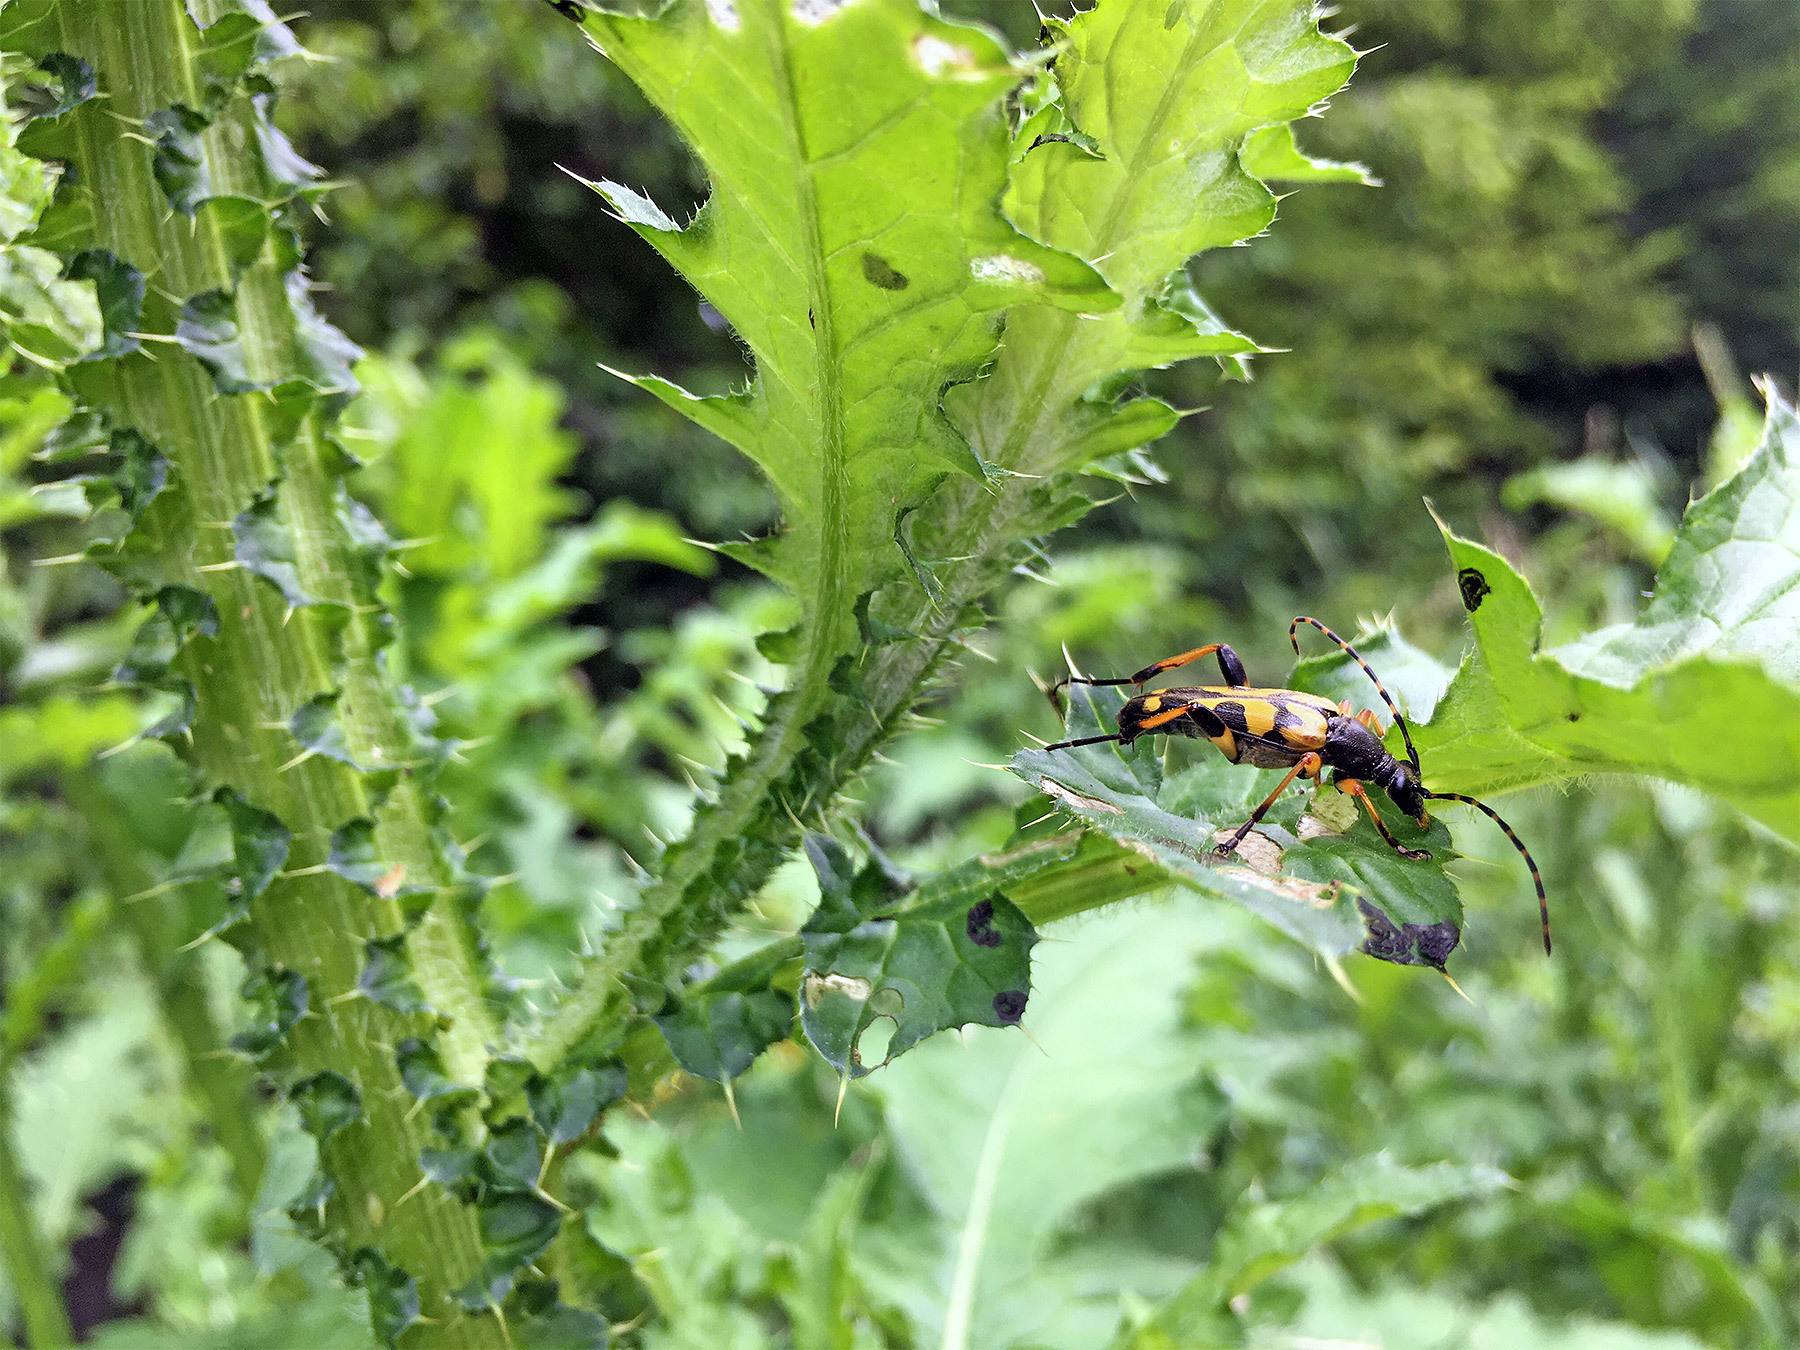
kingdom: Animalia
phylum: Arthropoda
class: Insecta
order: Coleoptera
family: Cerambycidae
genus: Rutpela
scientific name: Rutpela maculata
